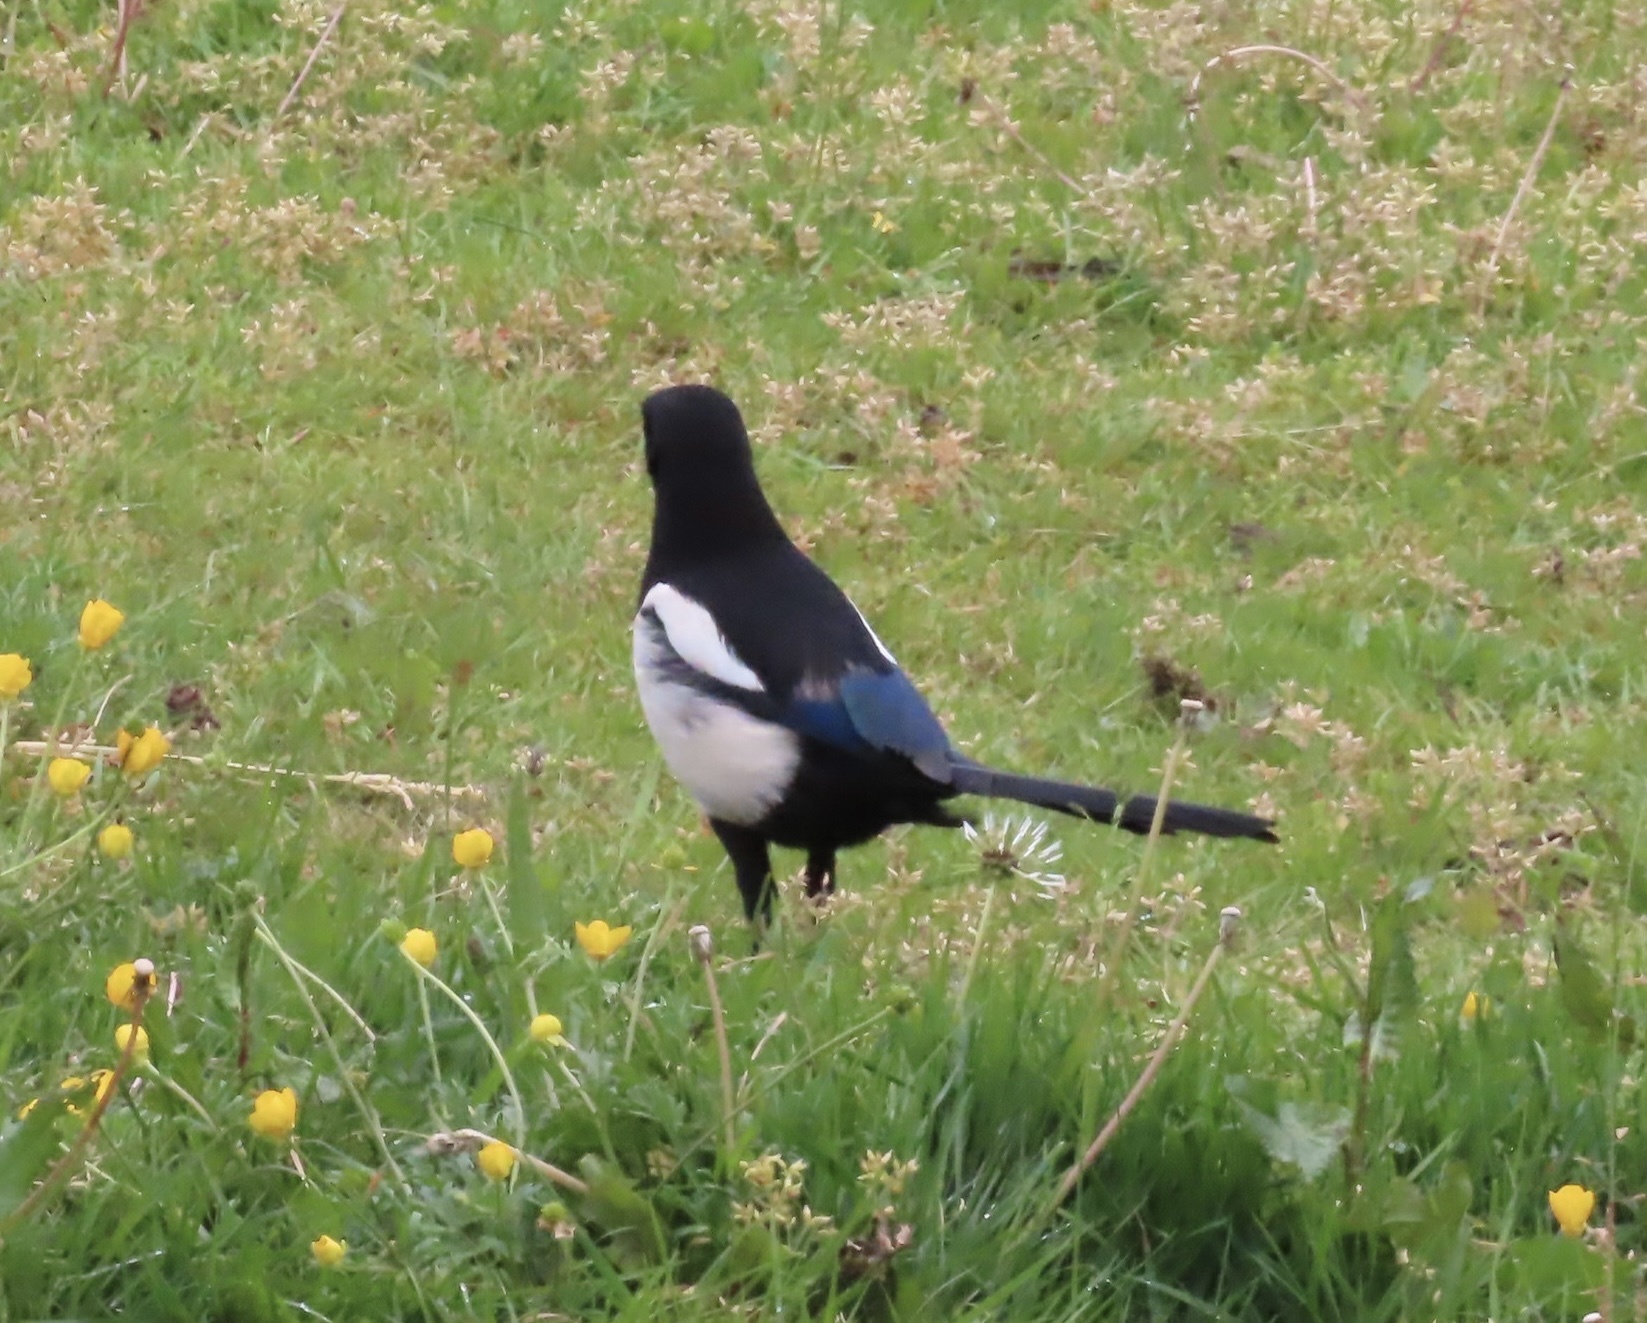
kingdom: Animalia
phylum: Chordata
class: Aves
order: Passeriformes
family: Corvidae
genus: Pica
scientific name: Pica pica
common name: Eurasian magpie
